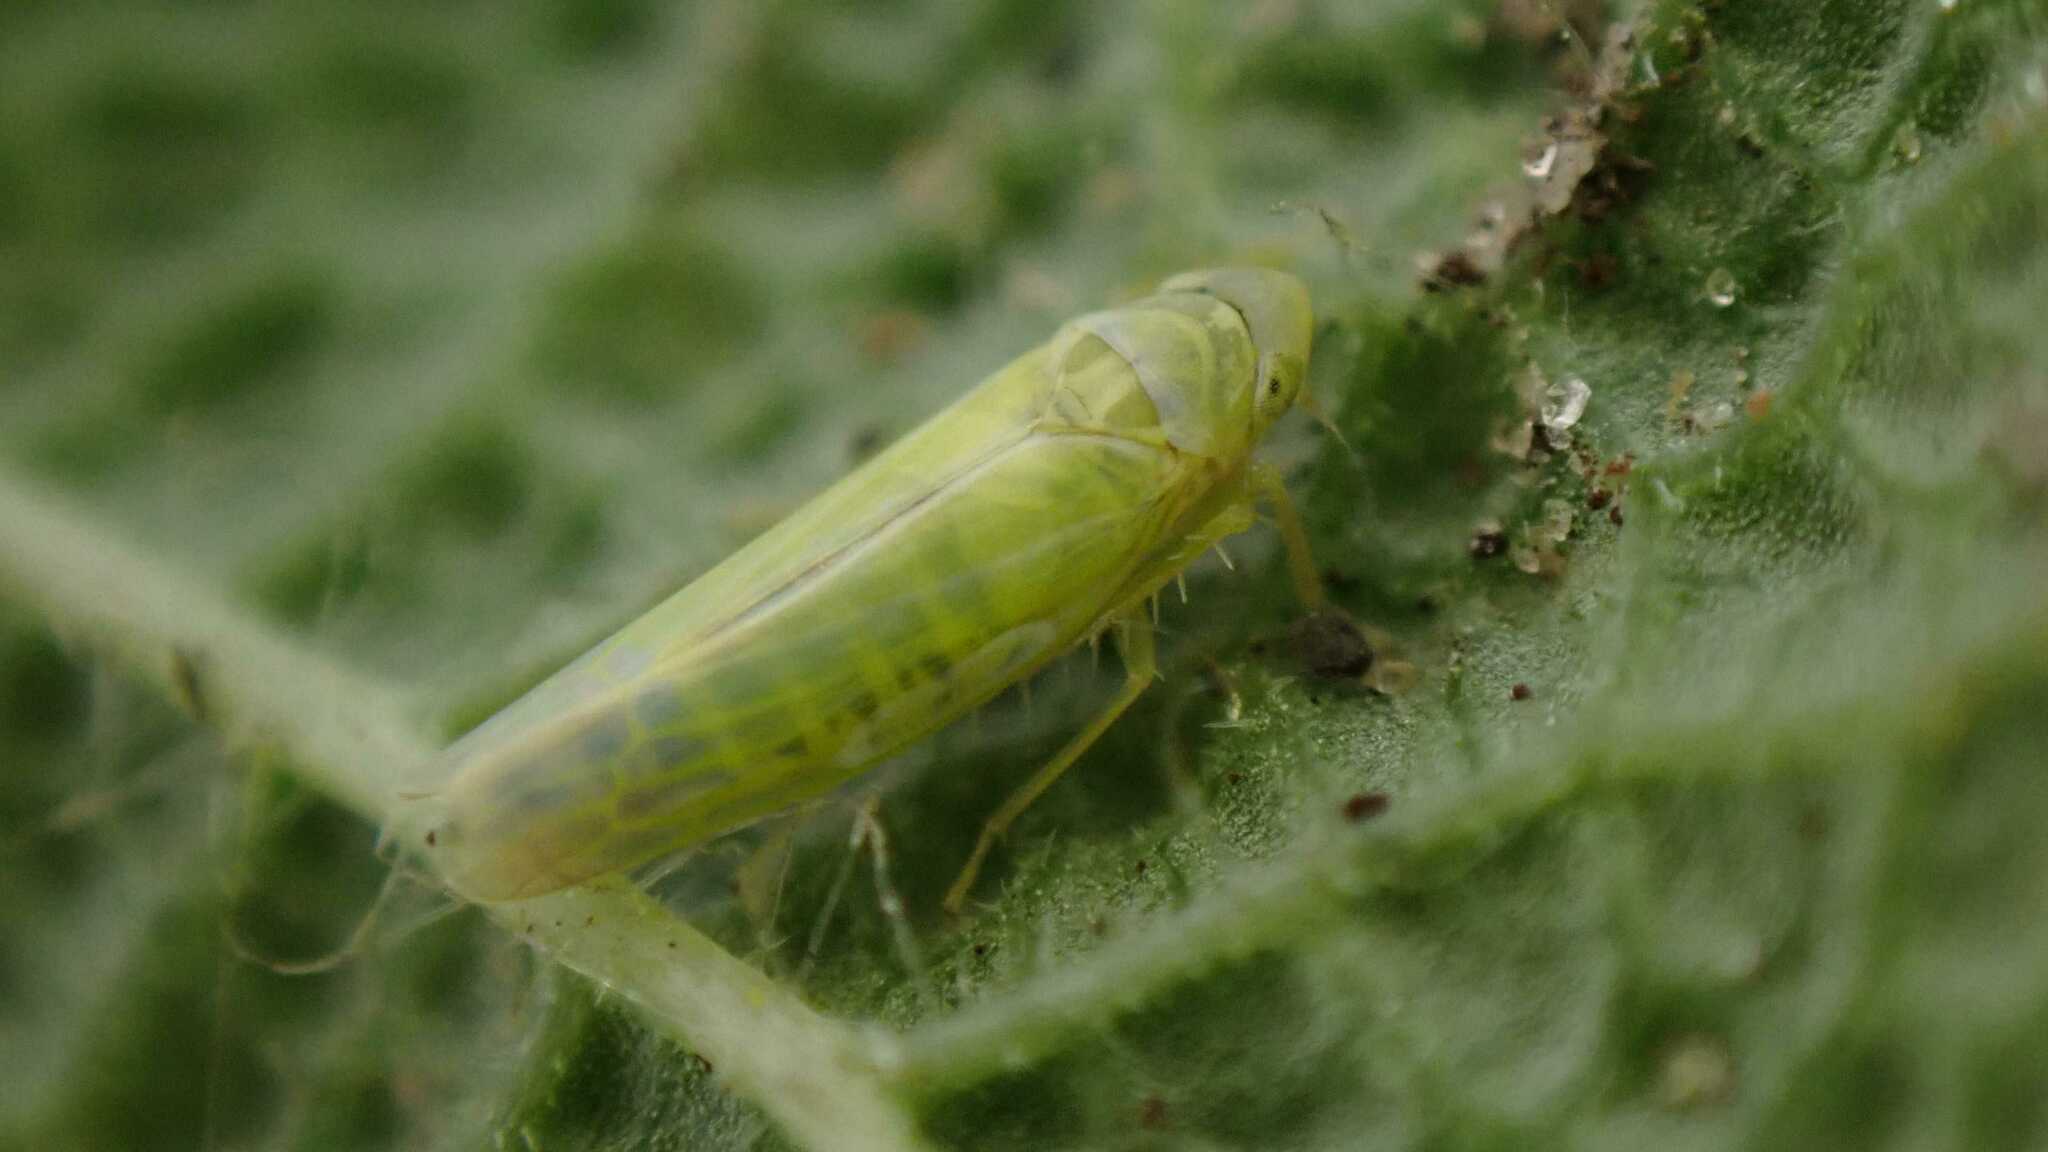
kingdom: Animalia
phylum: Arthropoda
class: Insecta
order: Hemiptera
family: Cicadellidae
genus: Emelyanoviana
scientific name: Emelyanoviana mollicula
